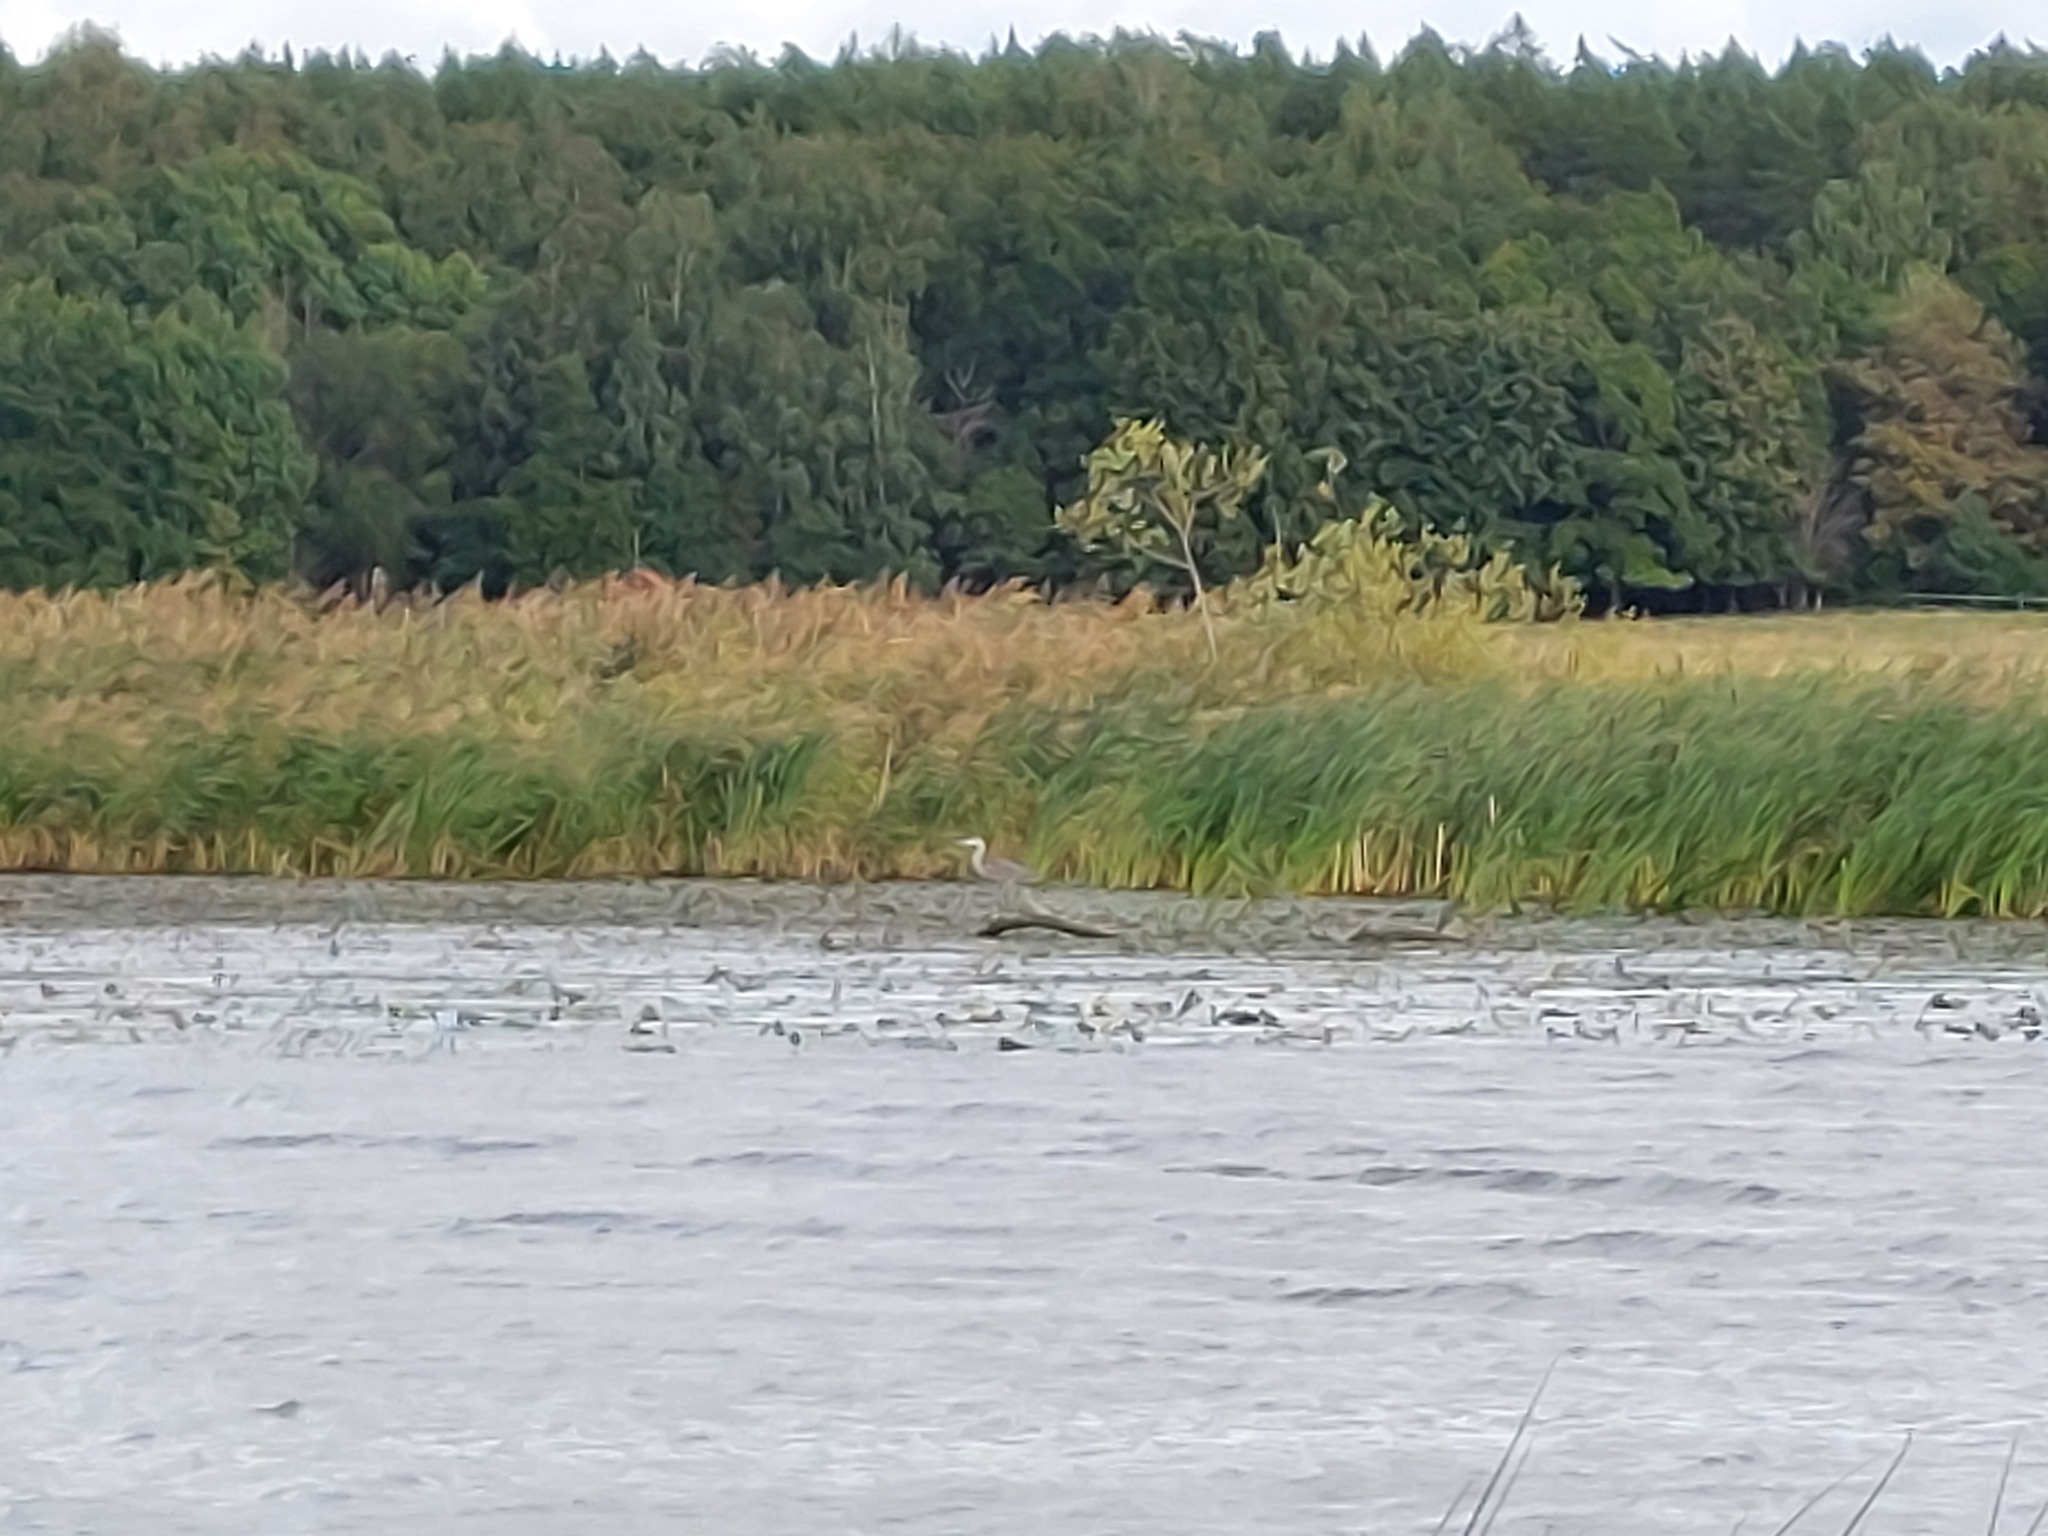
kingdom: Animalia
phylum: Chordata
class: Aves
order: Pelecaniformes
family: Ardeidae
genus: Ardea
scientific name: Ardea cinerea
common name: Grey heron
